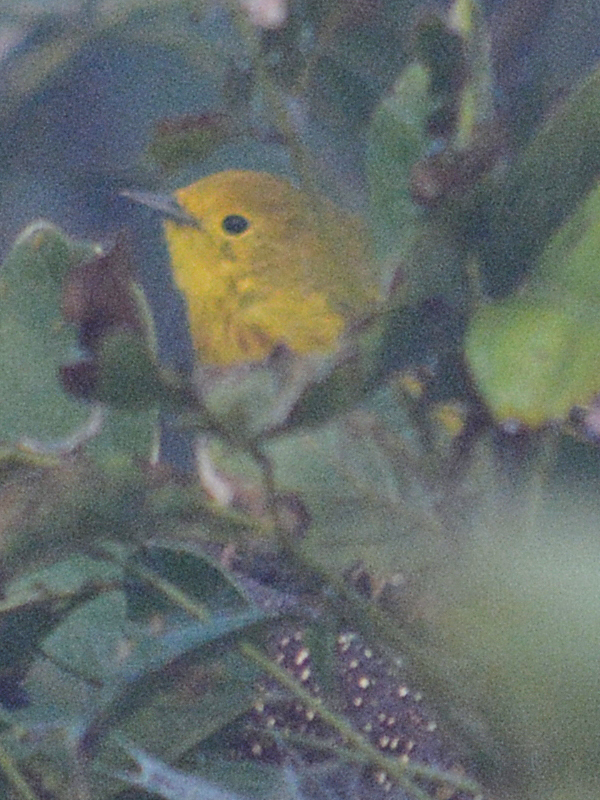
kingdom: Animalia
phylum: Chordata
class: Aves
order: Passeriformes
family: Parulidae
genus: Setophaga
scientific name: Setophaga petechia
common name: Yellow warbler
